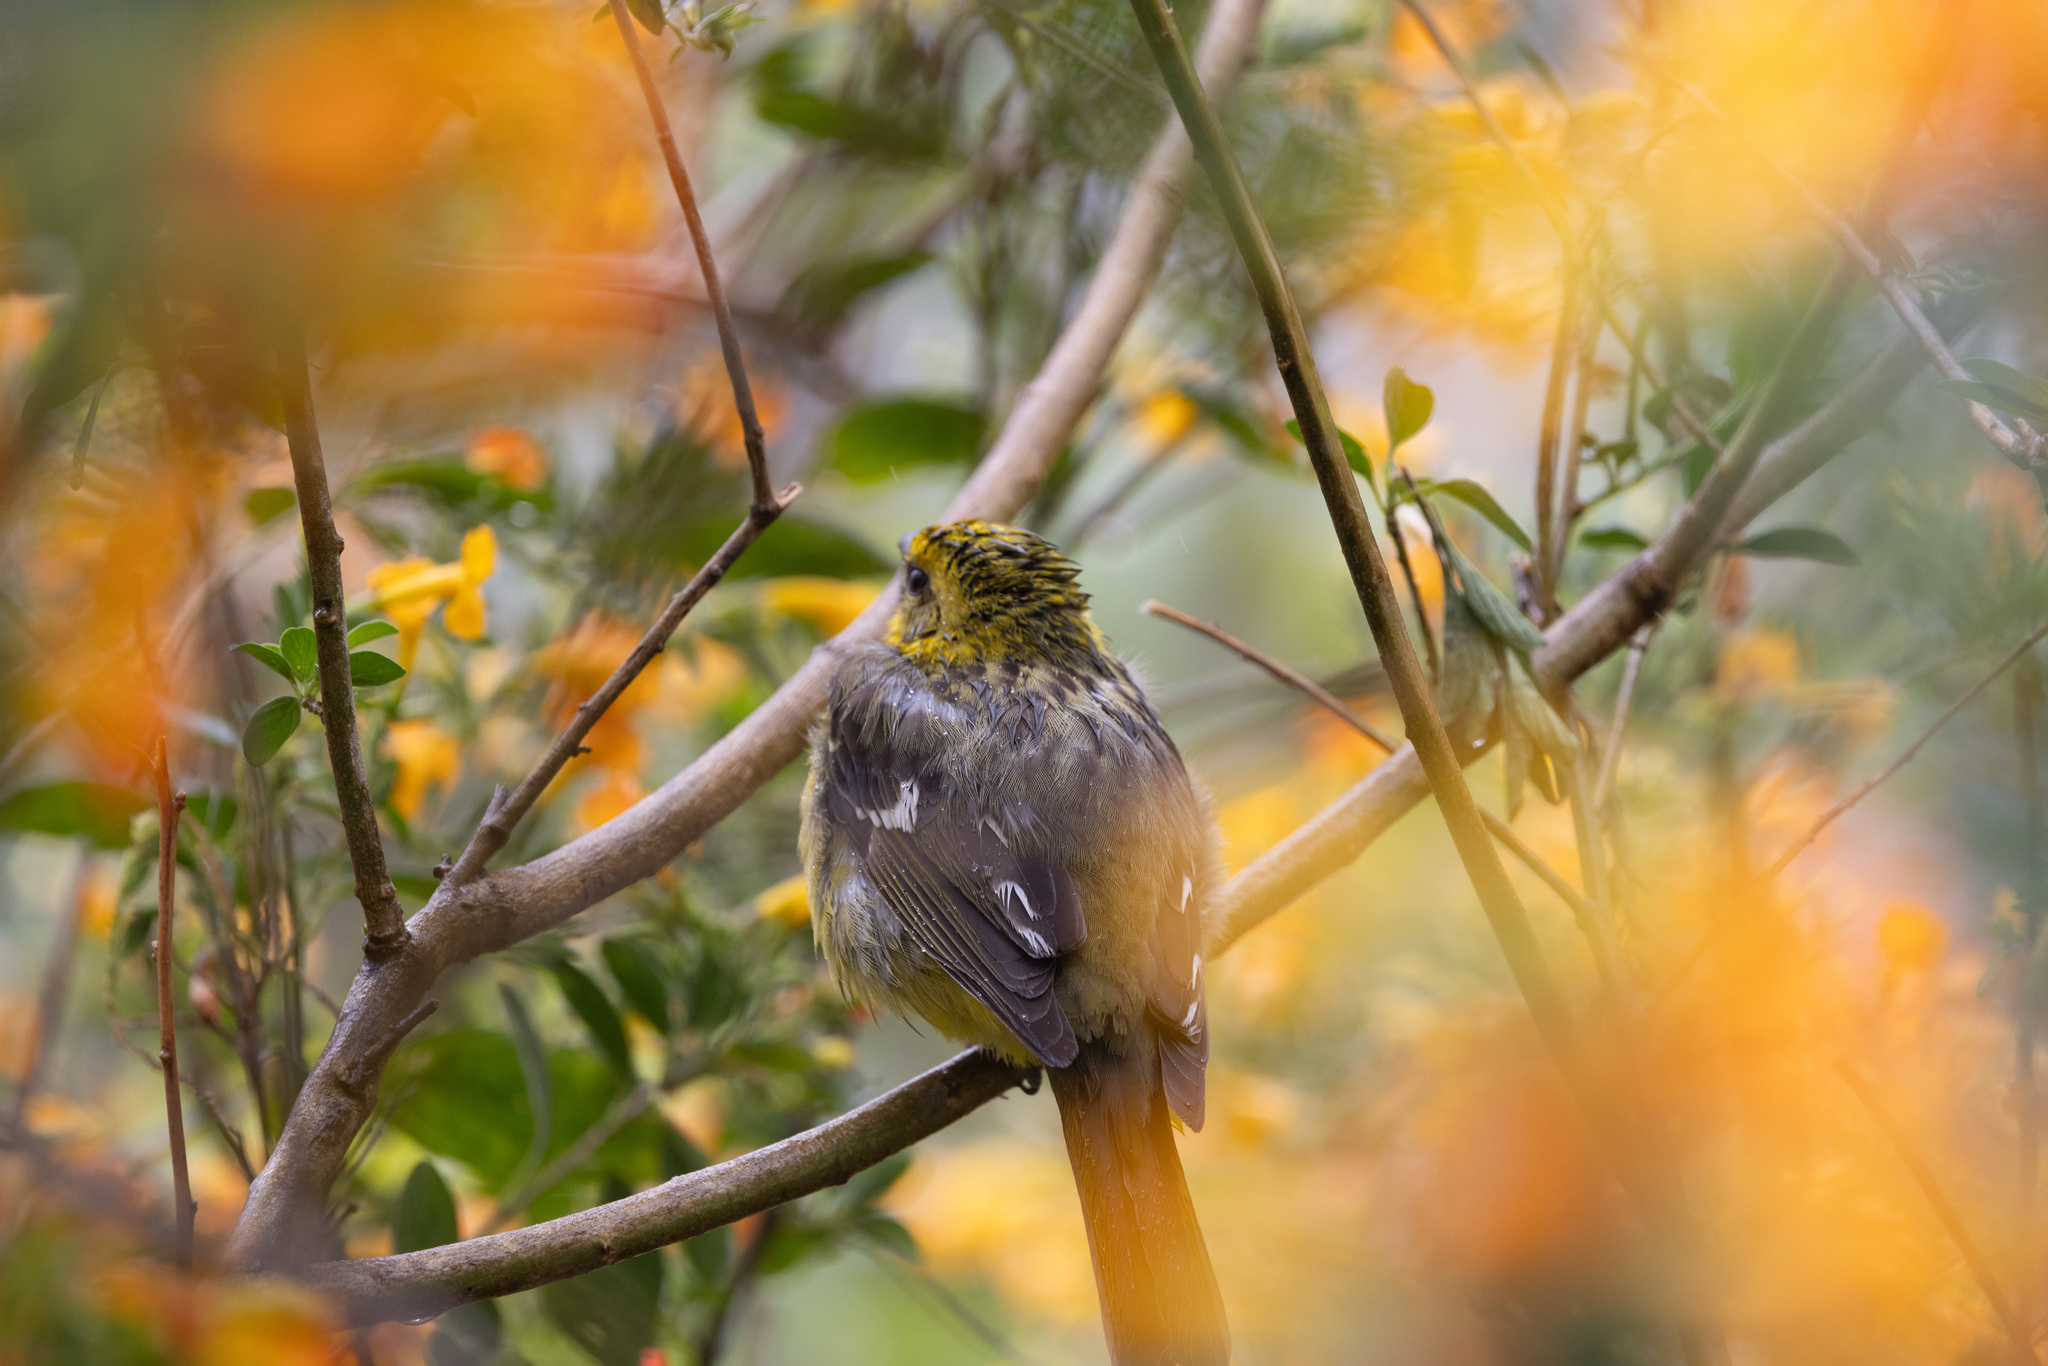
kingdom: Animalia
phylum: Chordata
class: Aves
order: Passeriformes
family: Cardinalidae
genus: Piranga
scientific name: Piranga bidentata
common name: Flame-colored tanager
